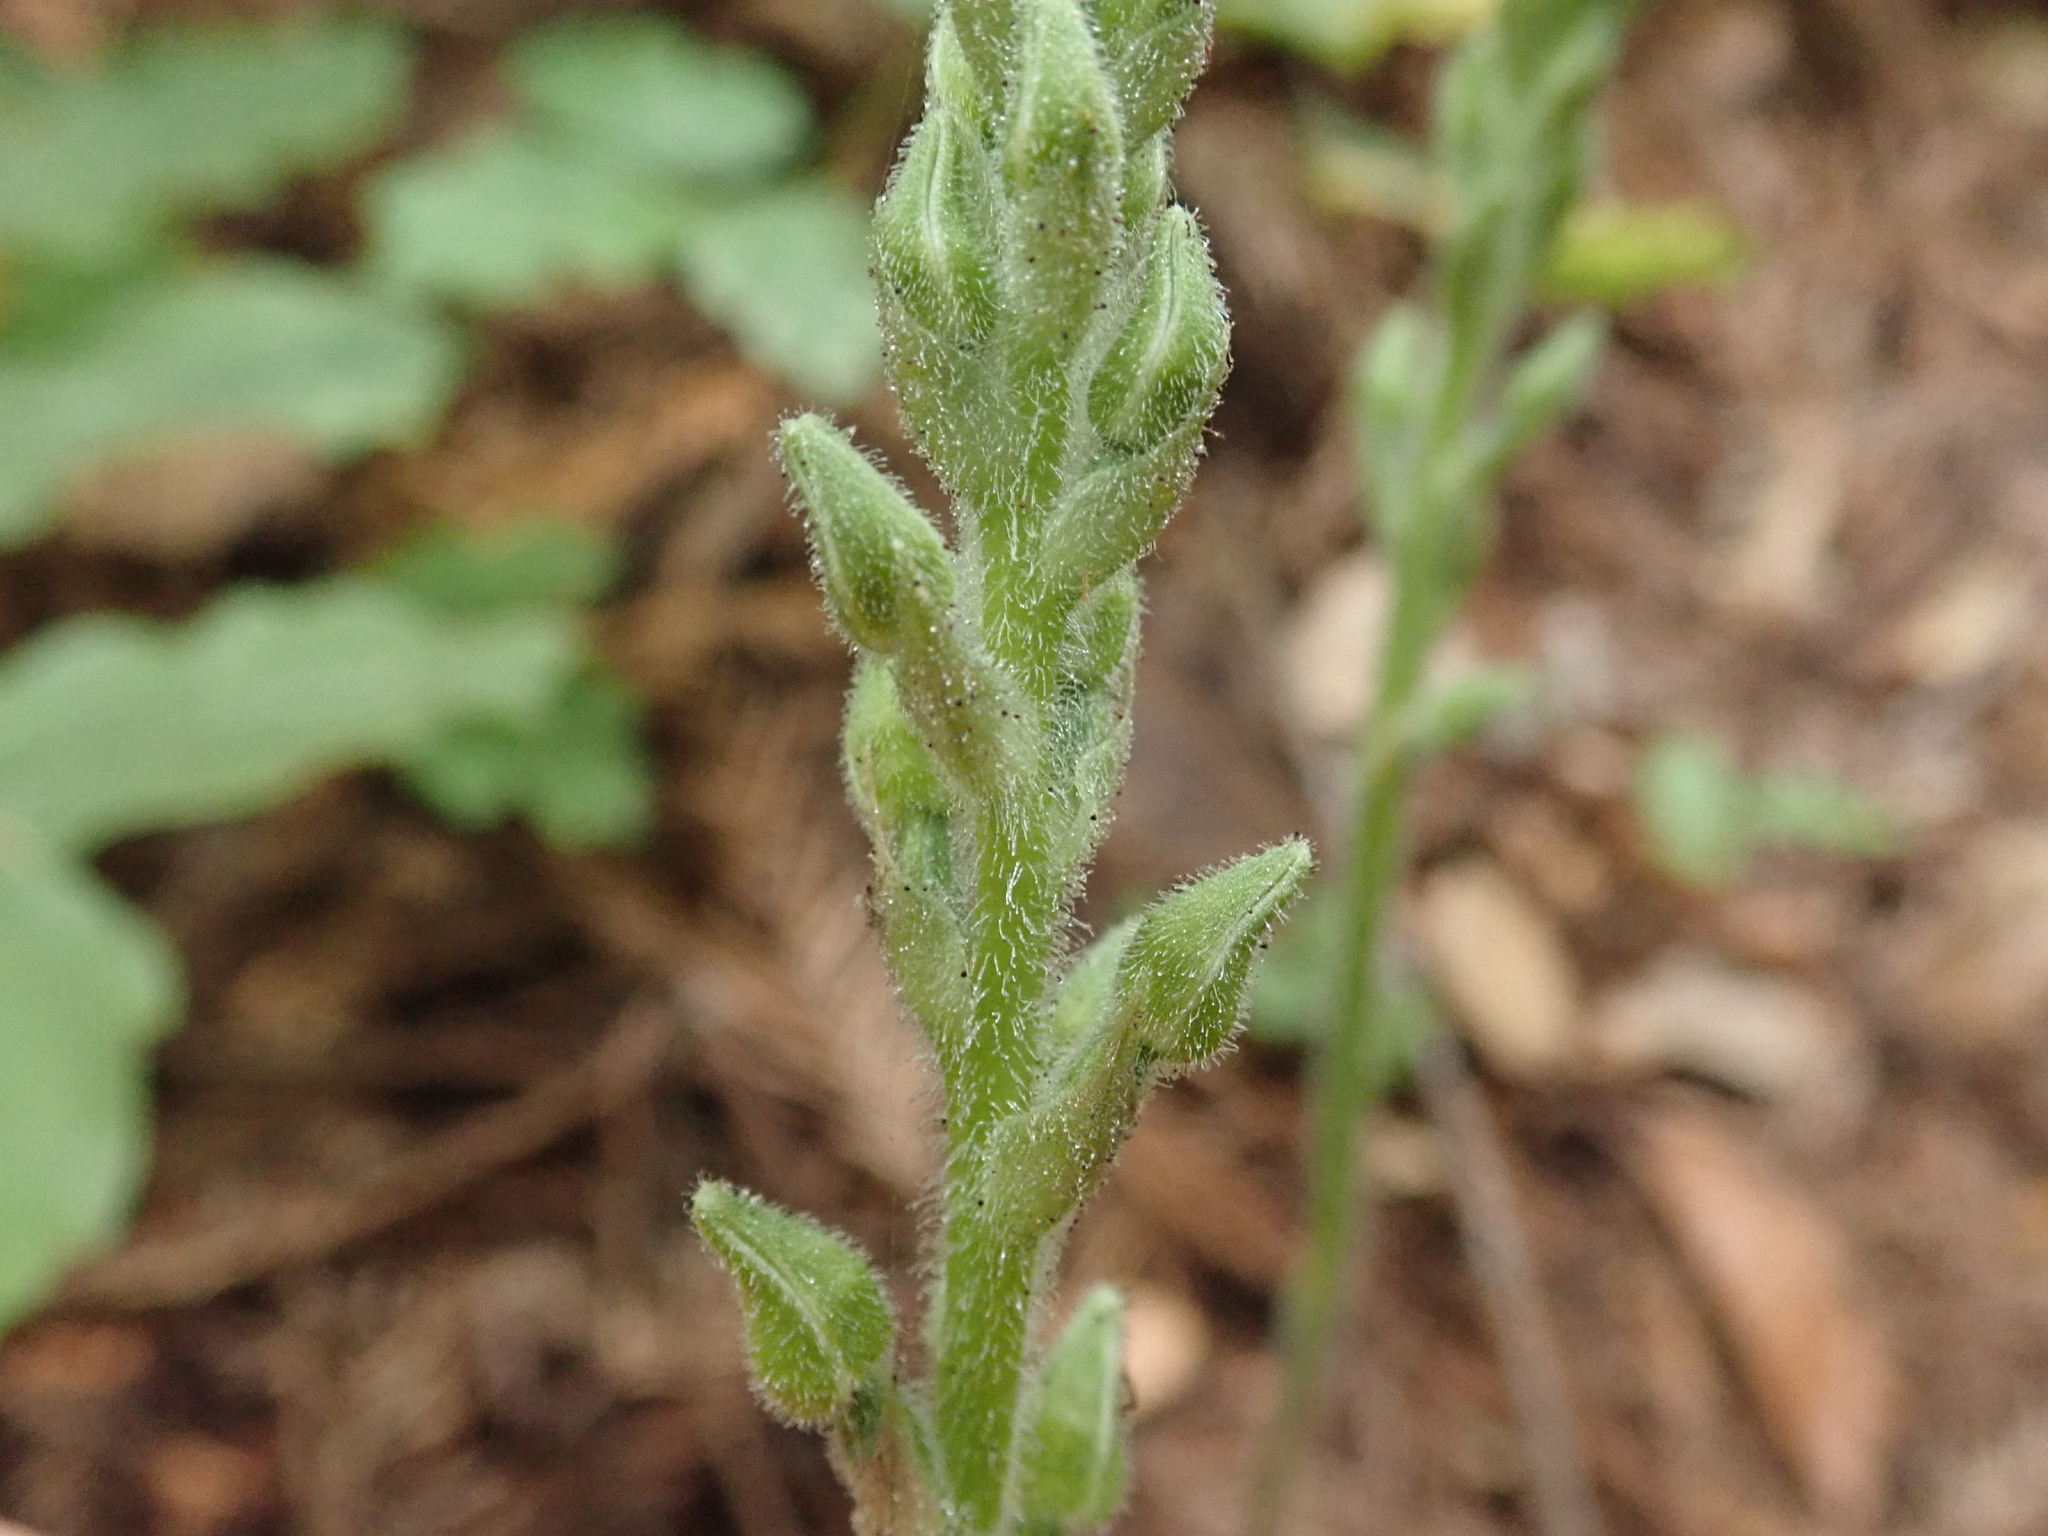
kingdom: Plantae
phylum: Tracheophyta
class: Liliopsida
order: Asparagales
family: Orchidaceae
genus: Goodyera
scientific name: Goodyera oblongifolia
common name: Giant rattlesnake-plantain
